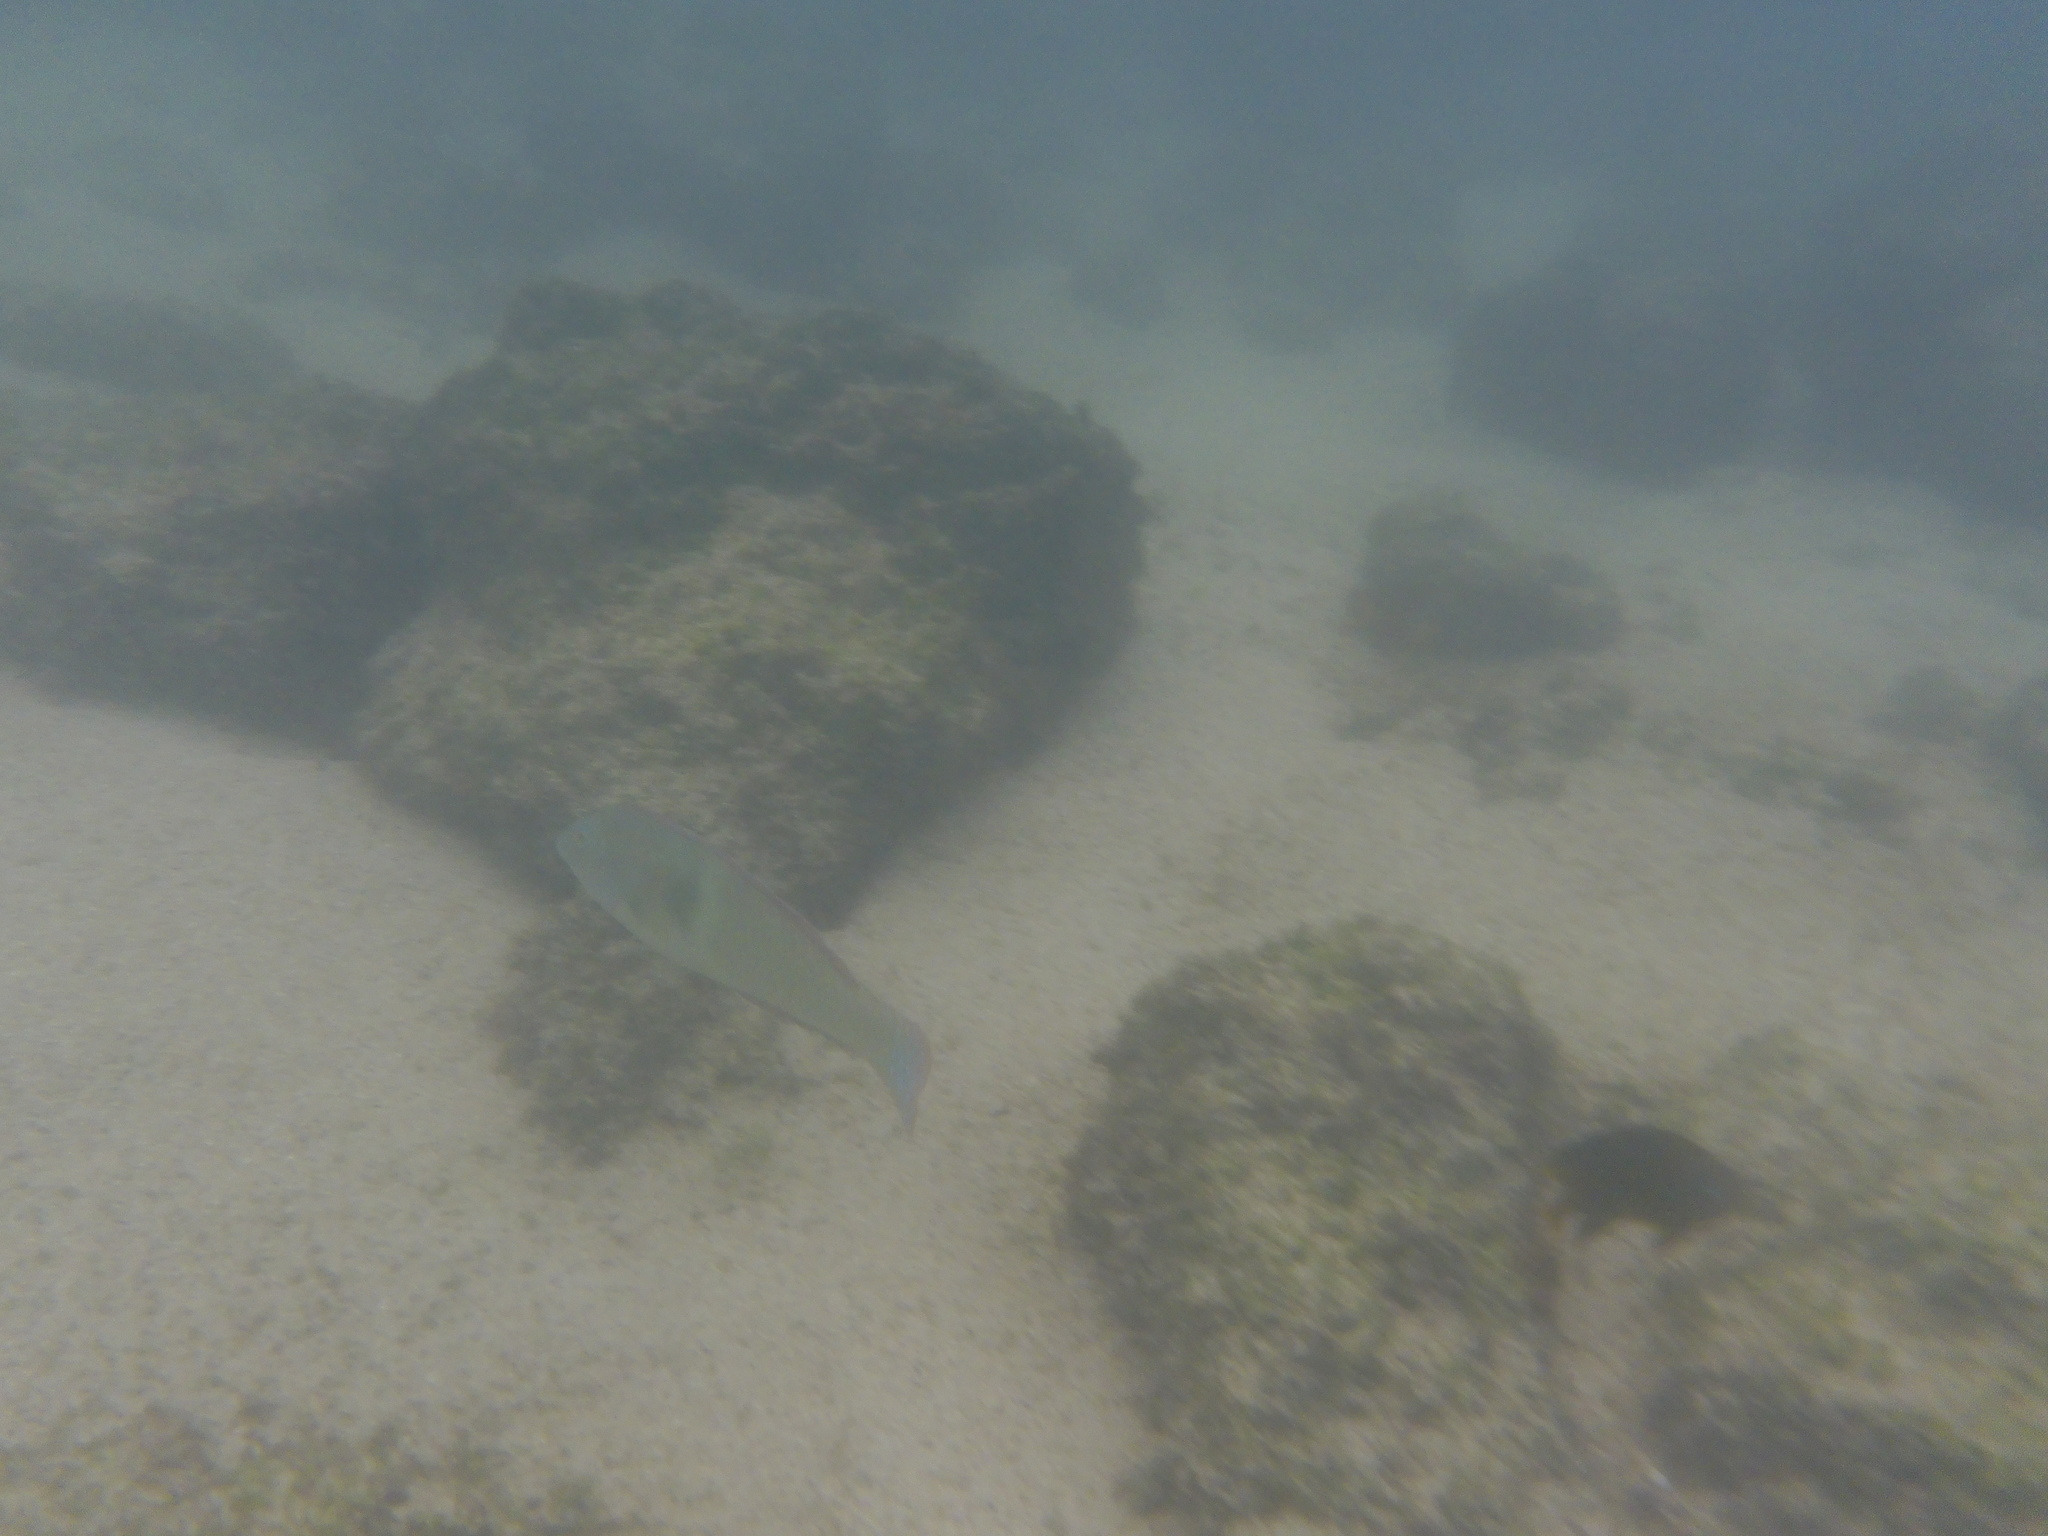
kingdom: Animalia
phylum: Chordata
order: Perciformes
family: Labridae
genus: Halichoeres
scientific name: Halichoeres nicholsi
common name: Spinster wrasse
